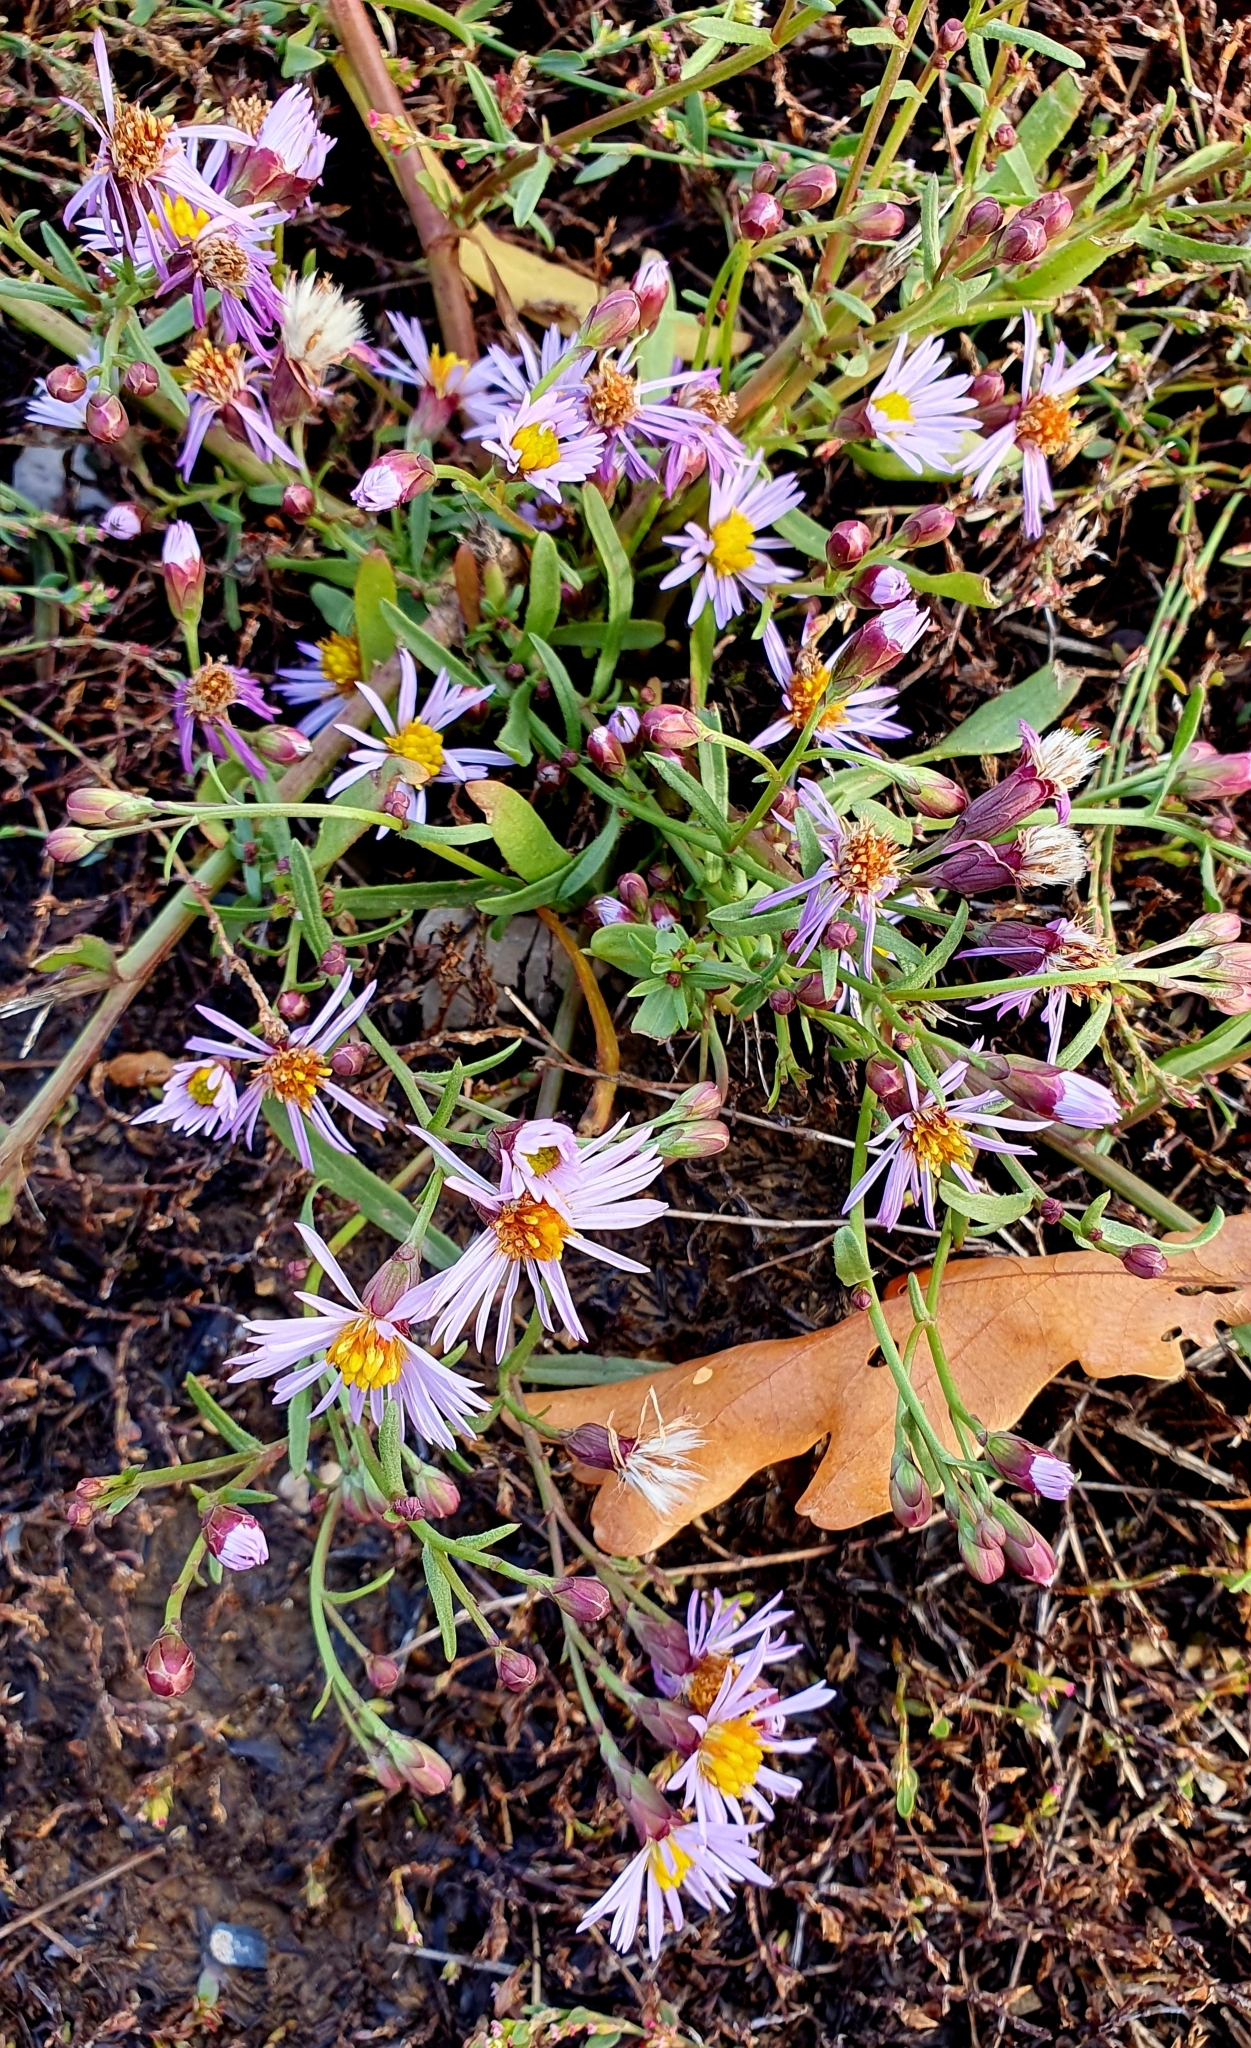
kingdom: Plantae
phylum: Tracheophyta
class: Magnoliopsida
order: Asterales
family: Asteraceae
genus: Tripolium
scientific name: Tripolium pannonicum
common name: Sea aster
